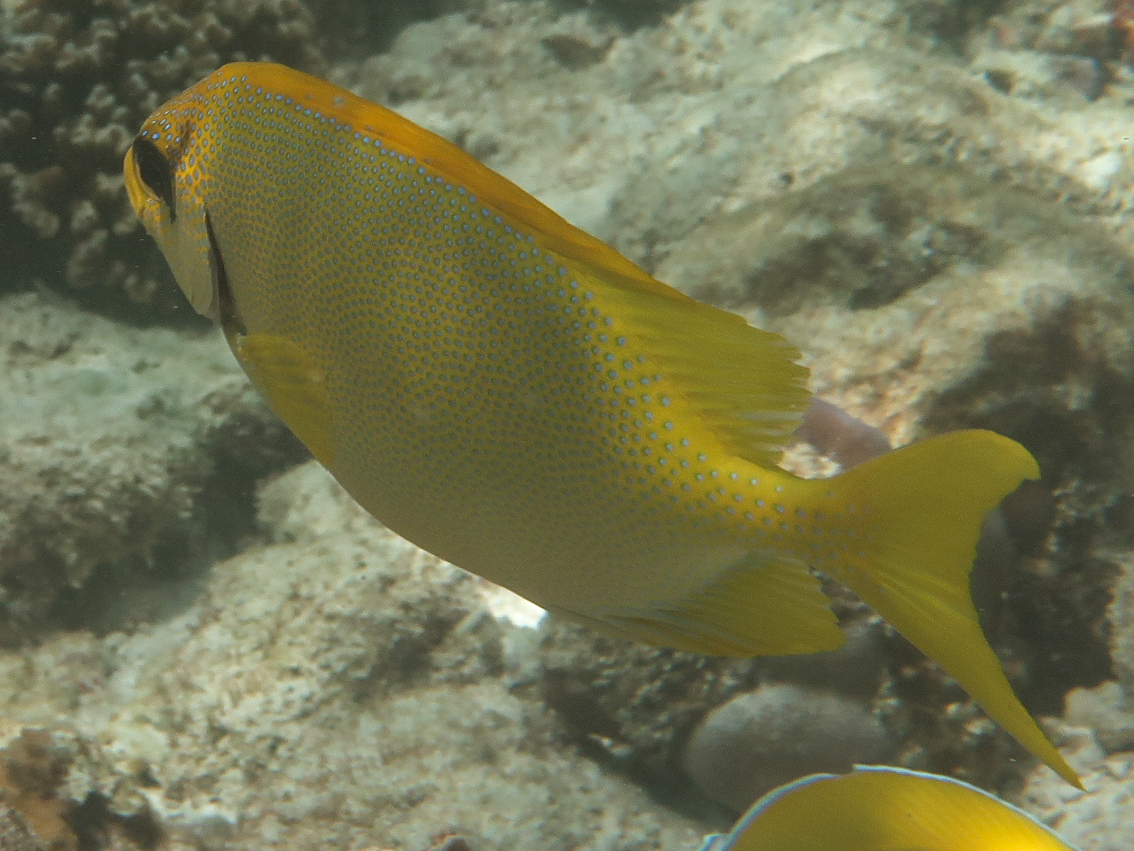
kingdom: Animalia
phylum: Chordata
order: Perciformes
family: Siganidae
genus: Siganus
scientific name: Siganus corallinus
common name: Coral rabbitfish
